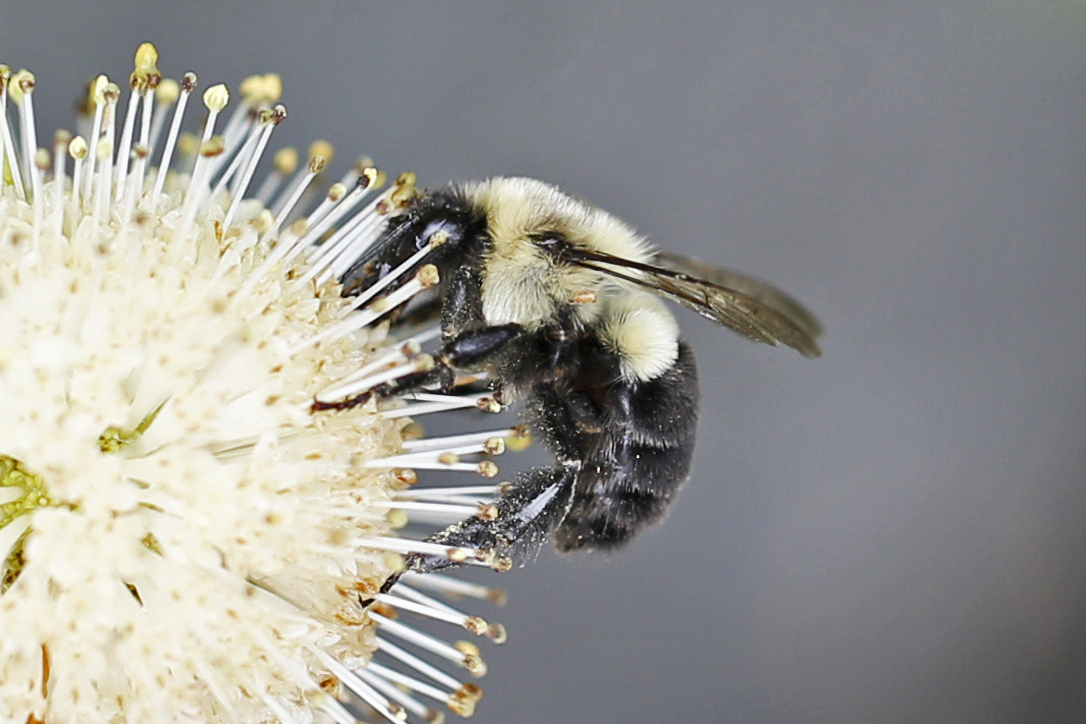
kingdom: Animalia
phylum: Arthropoda
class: Insecta
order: Hymenoptera
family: Apidae
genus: Bombus
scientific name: Bombus impatiens
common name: Common eastern bumble bee
